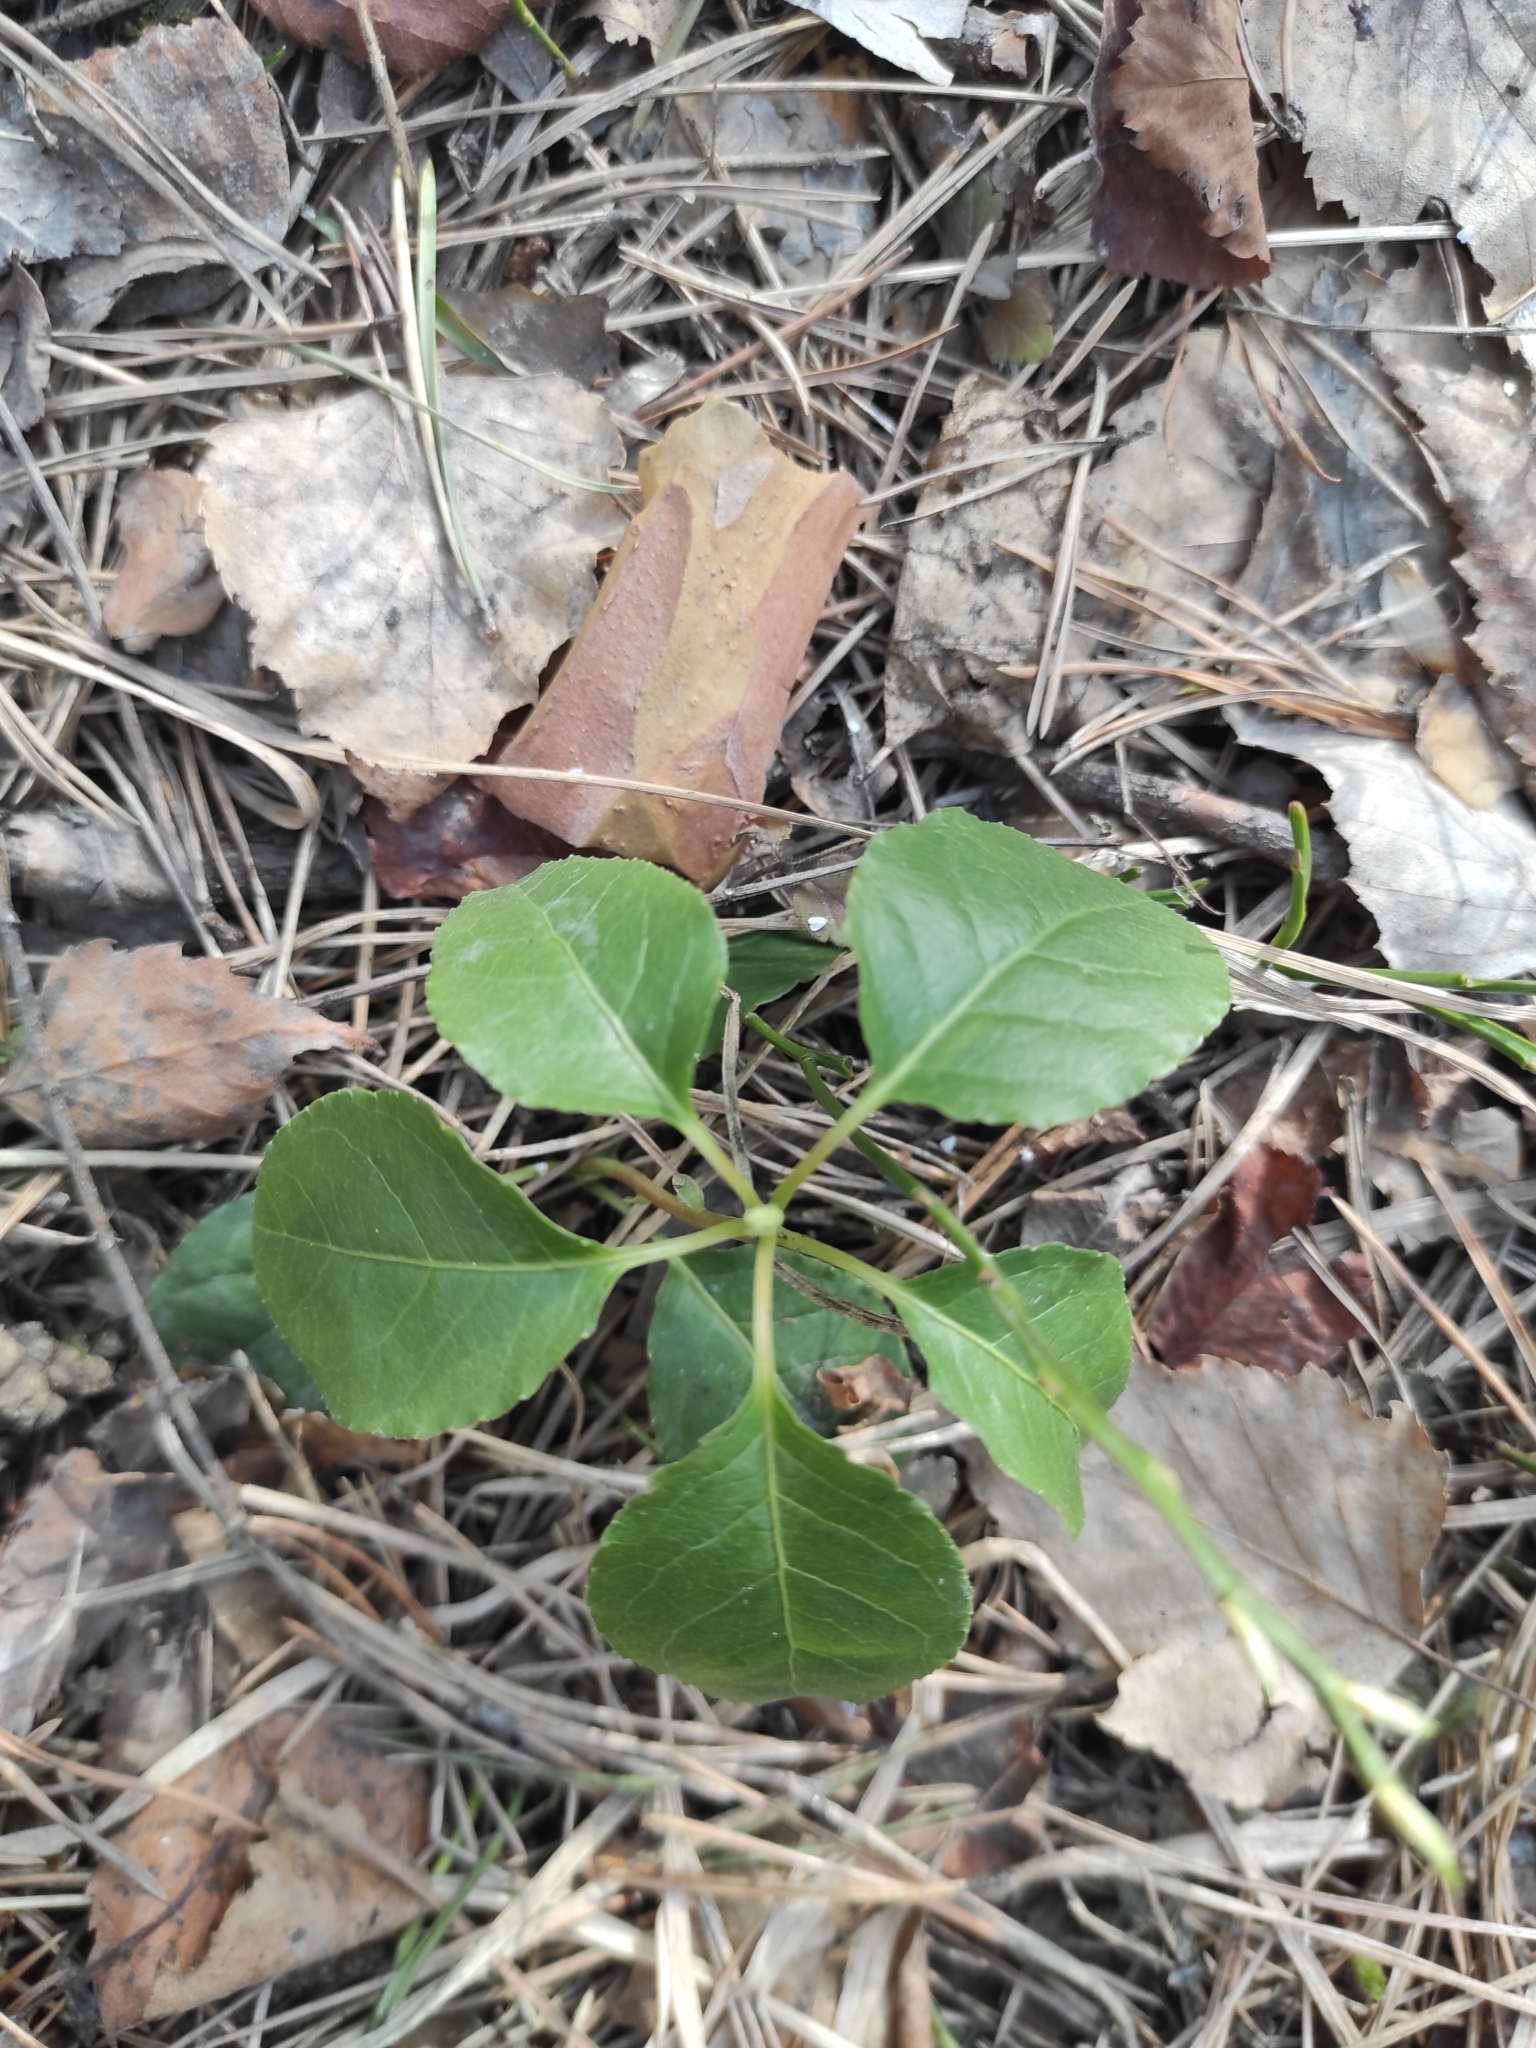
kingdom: Plantae
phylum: Tracheophyta
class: Magnoliopsida
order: Ericales
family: Ericaceae
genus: Orthilia
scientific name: Orthilia secunda
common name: One-sided orthilia
